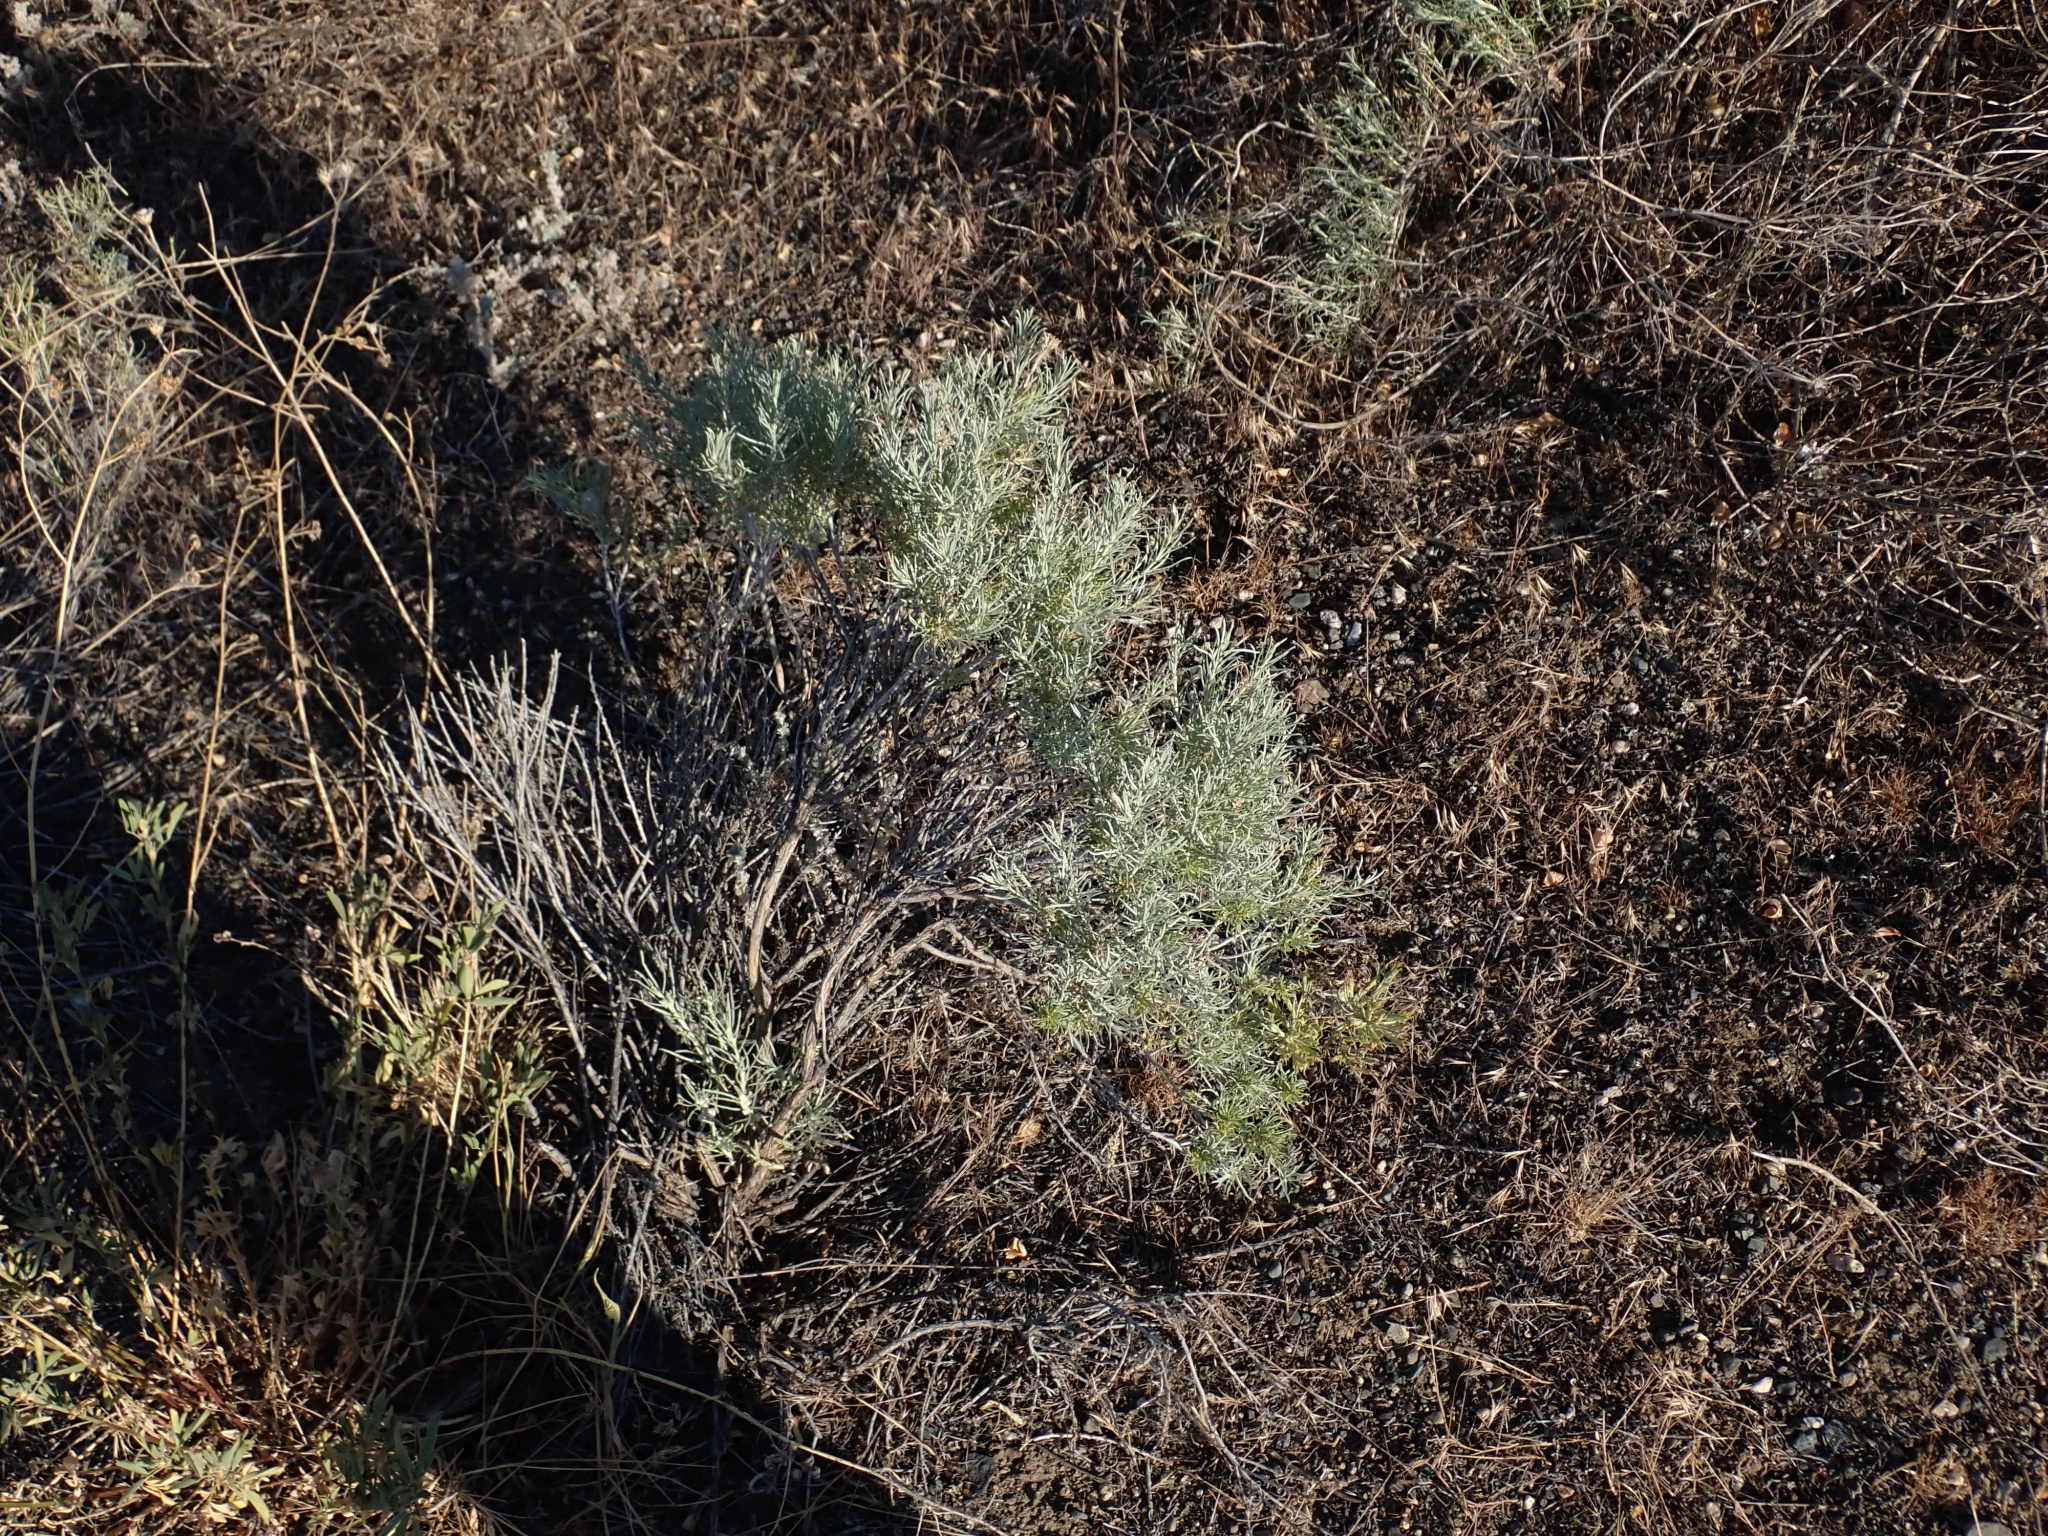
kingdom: Plantae
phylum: Tracheophyta
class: Magnoliopsida
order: Asterales
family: Asteraceae
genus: Ericameria
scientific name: Ericameria nauseosa
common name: Rubber rabbitbrush
